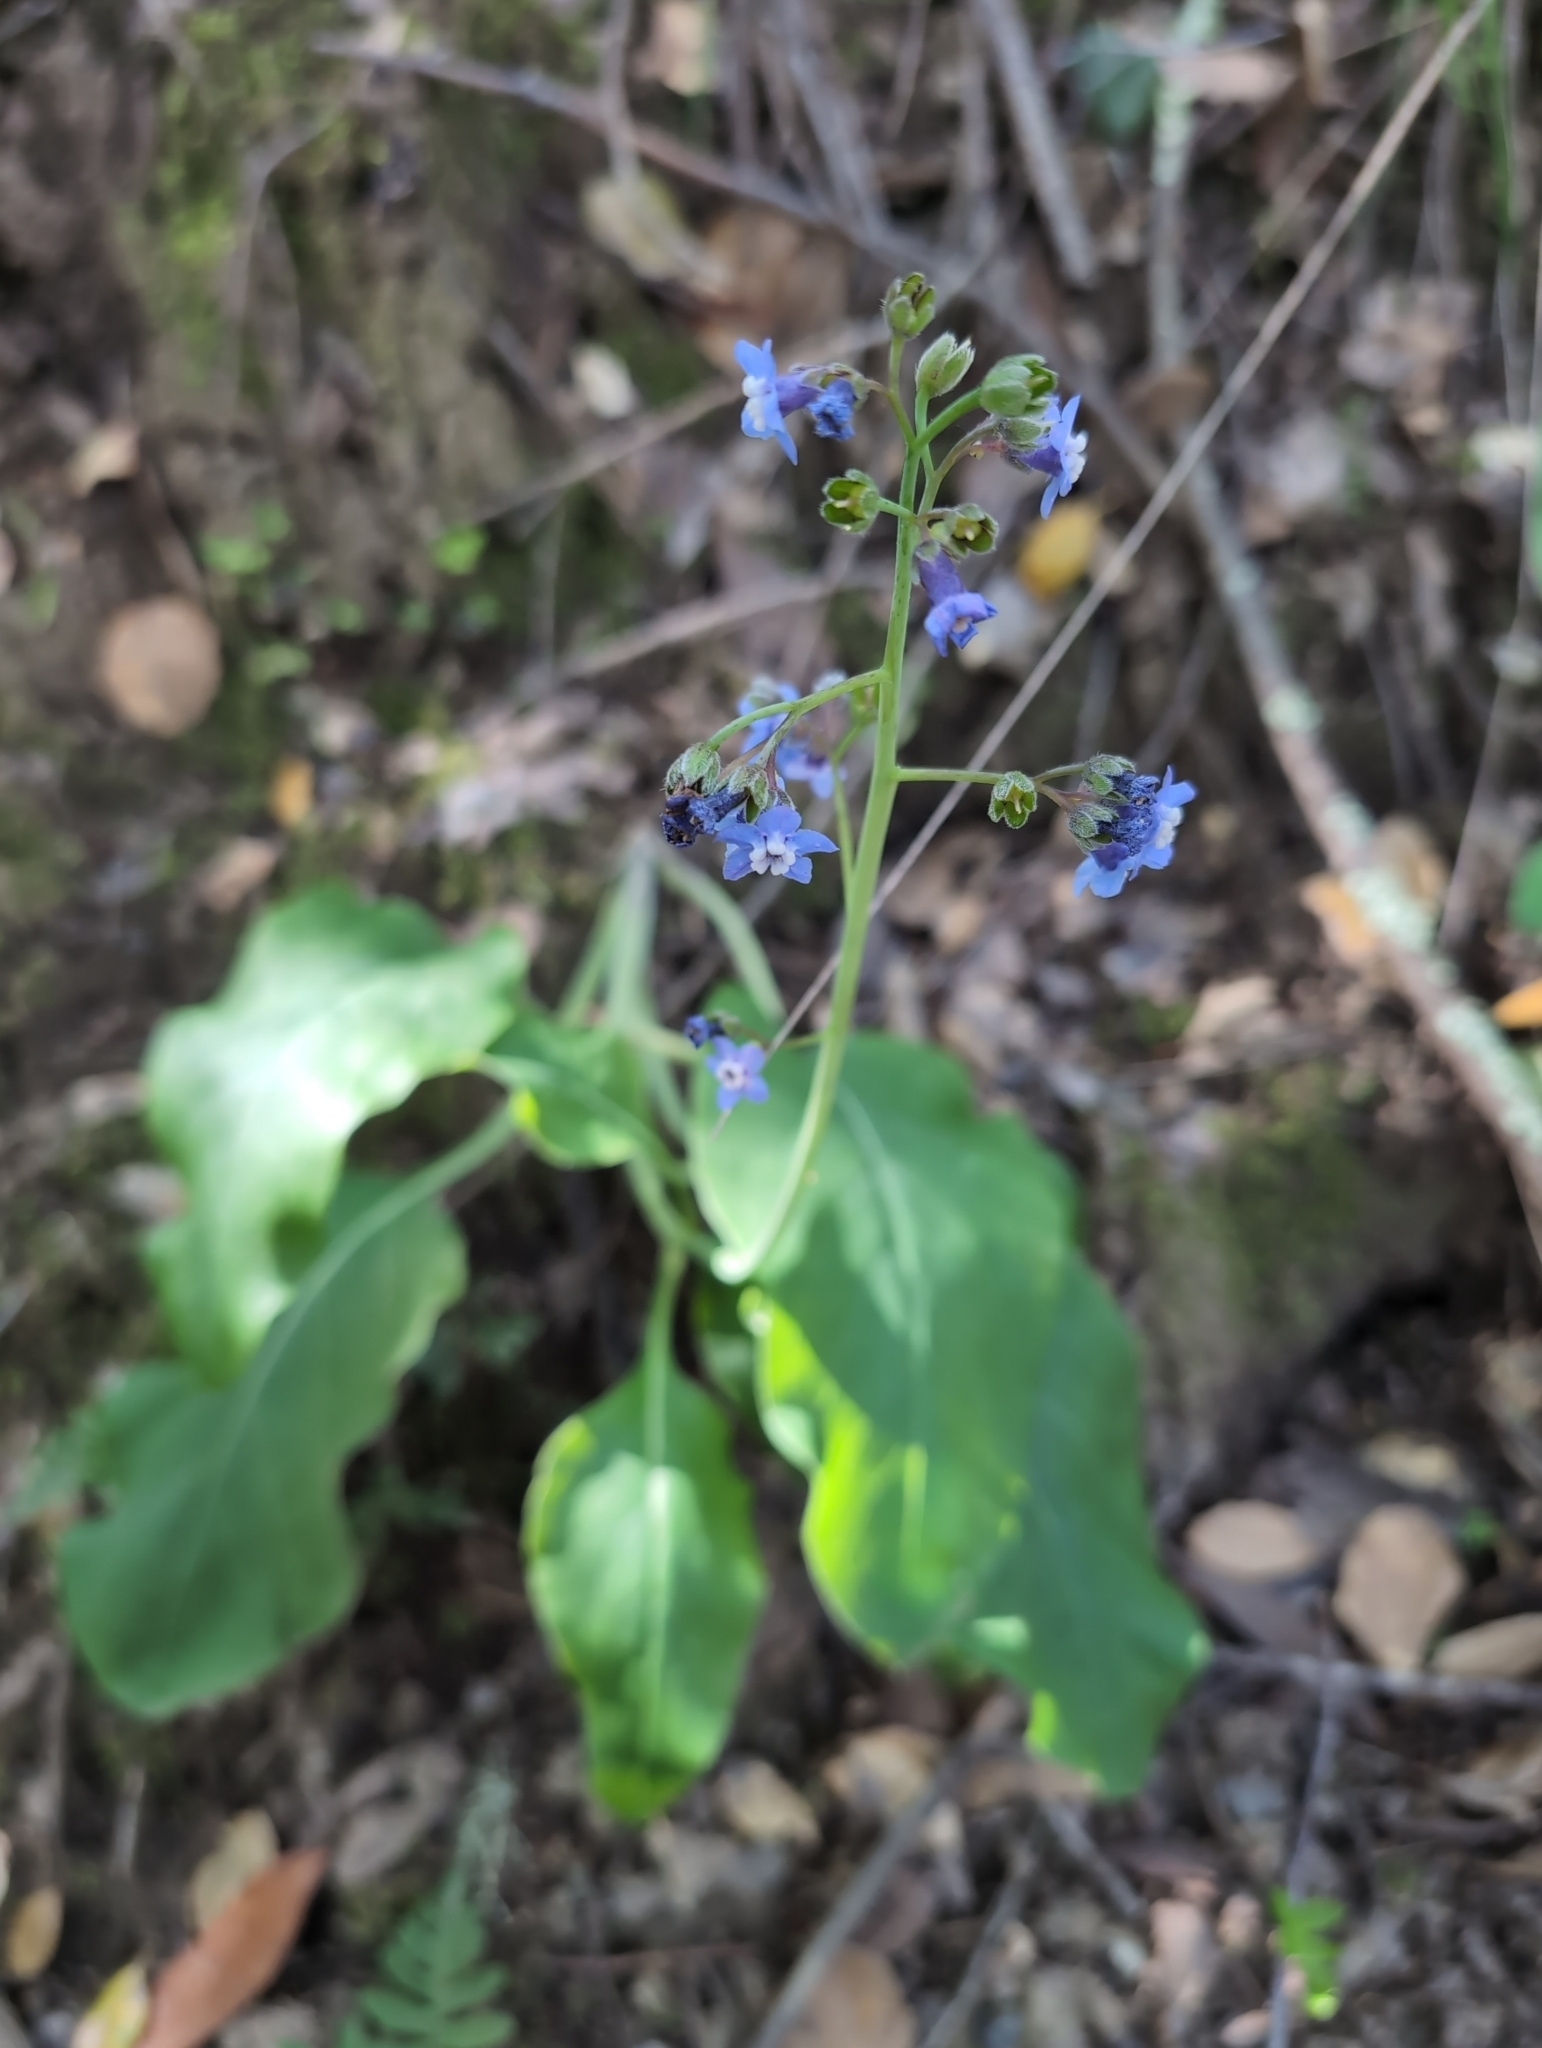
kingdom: Plantae
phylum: Tracheophyta
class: Magnoliopsida
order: Boraginales
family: Boraginaceae
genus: Adelinia
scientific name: Adelinia grande
